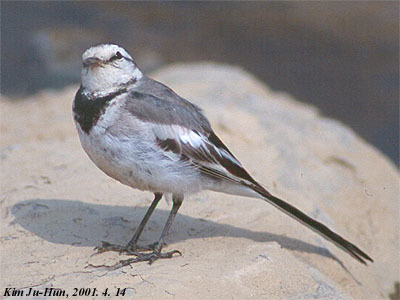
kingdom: Animalia
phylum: Chordata
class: Aves
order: Passeriformes
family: Motacillidae
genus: Motacilla
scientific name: Motacilla alba
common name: White wagtail
